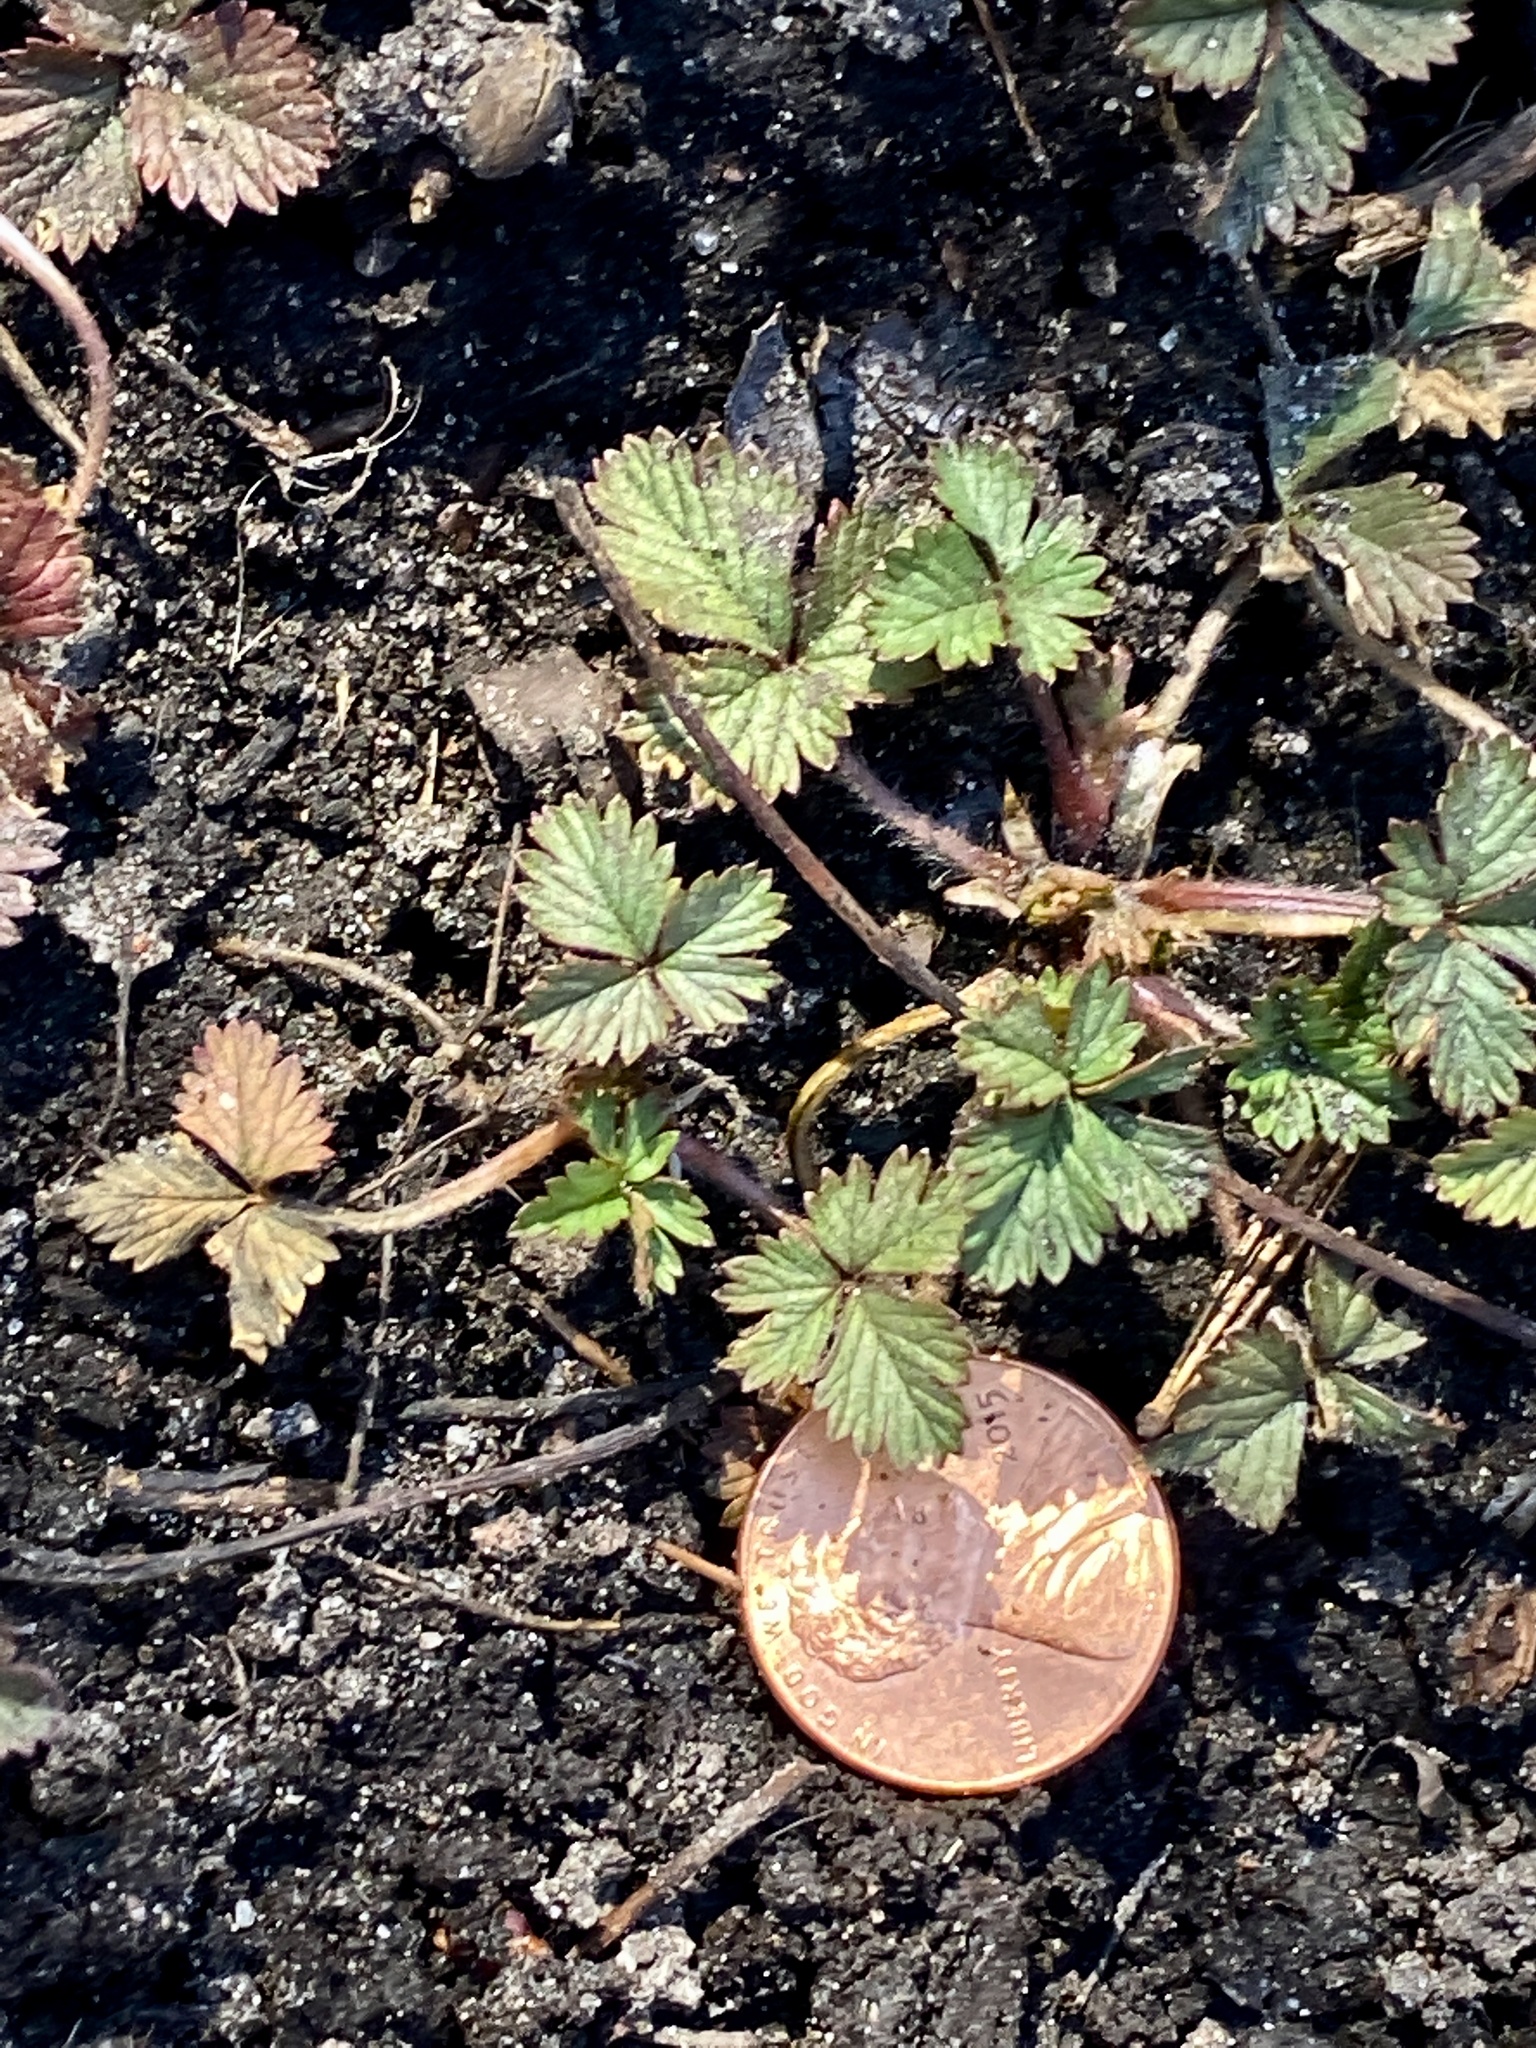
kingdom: Plantae
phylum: Tracheophyta
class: Magnoliopsida
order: Rosales
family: Rosaceae
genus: Potentilla
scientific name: Potentilla indica
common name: Yellow-flowered strawberry
